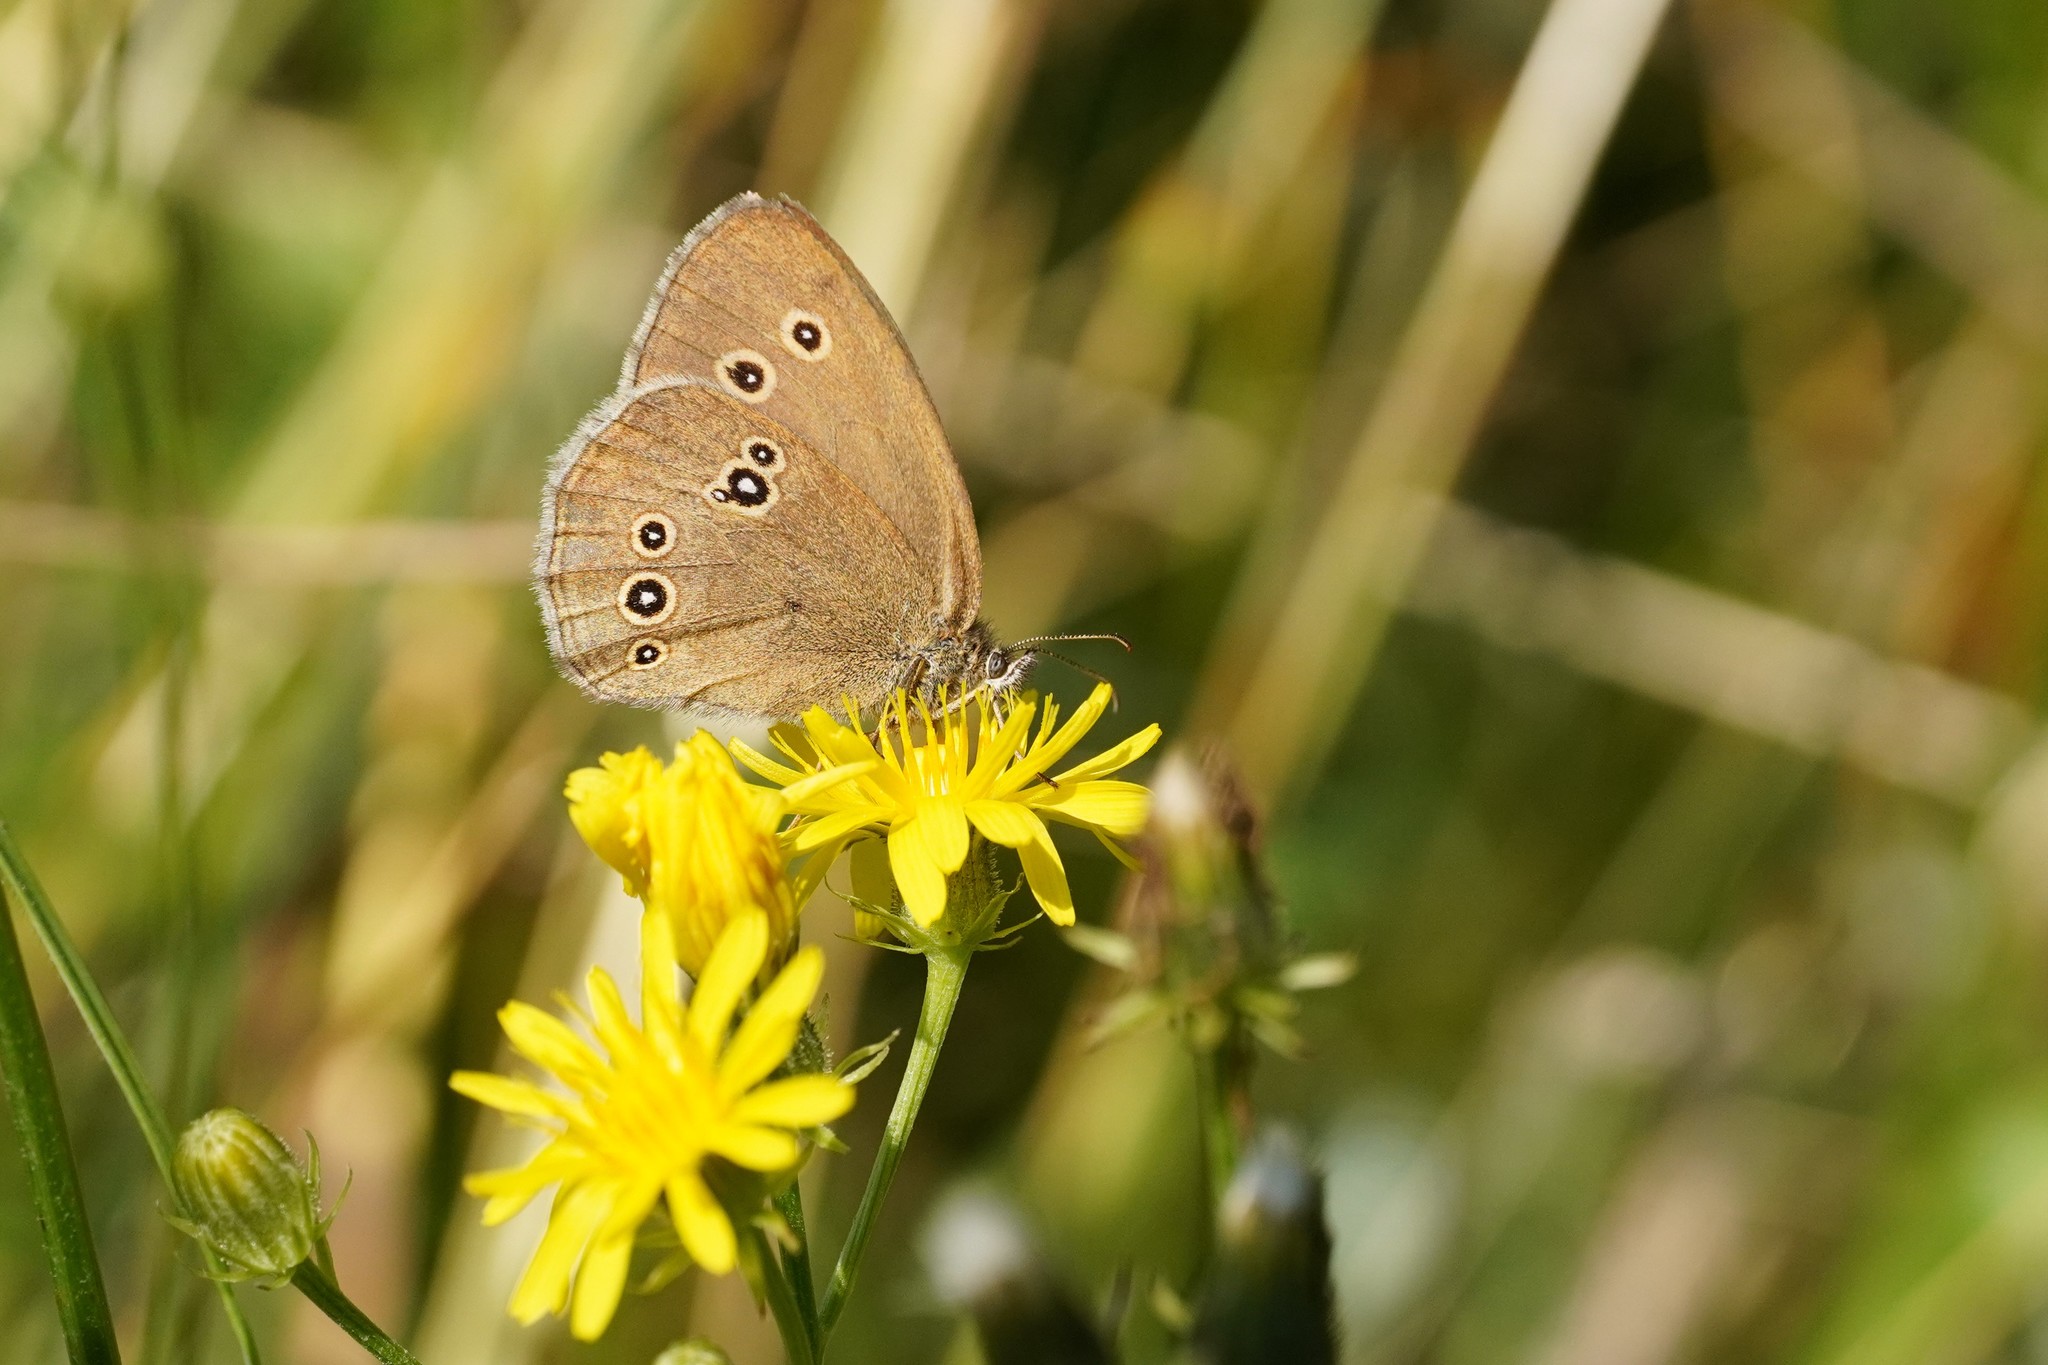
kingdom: Animalia
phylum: Arthropoda
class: Insecta
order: Lepidoptera
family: Nymphalidae
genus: Aphantopus
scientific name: Aphantopus hyperantus
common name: Ringlet
